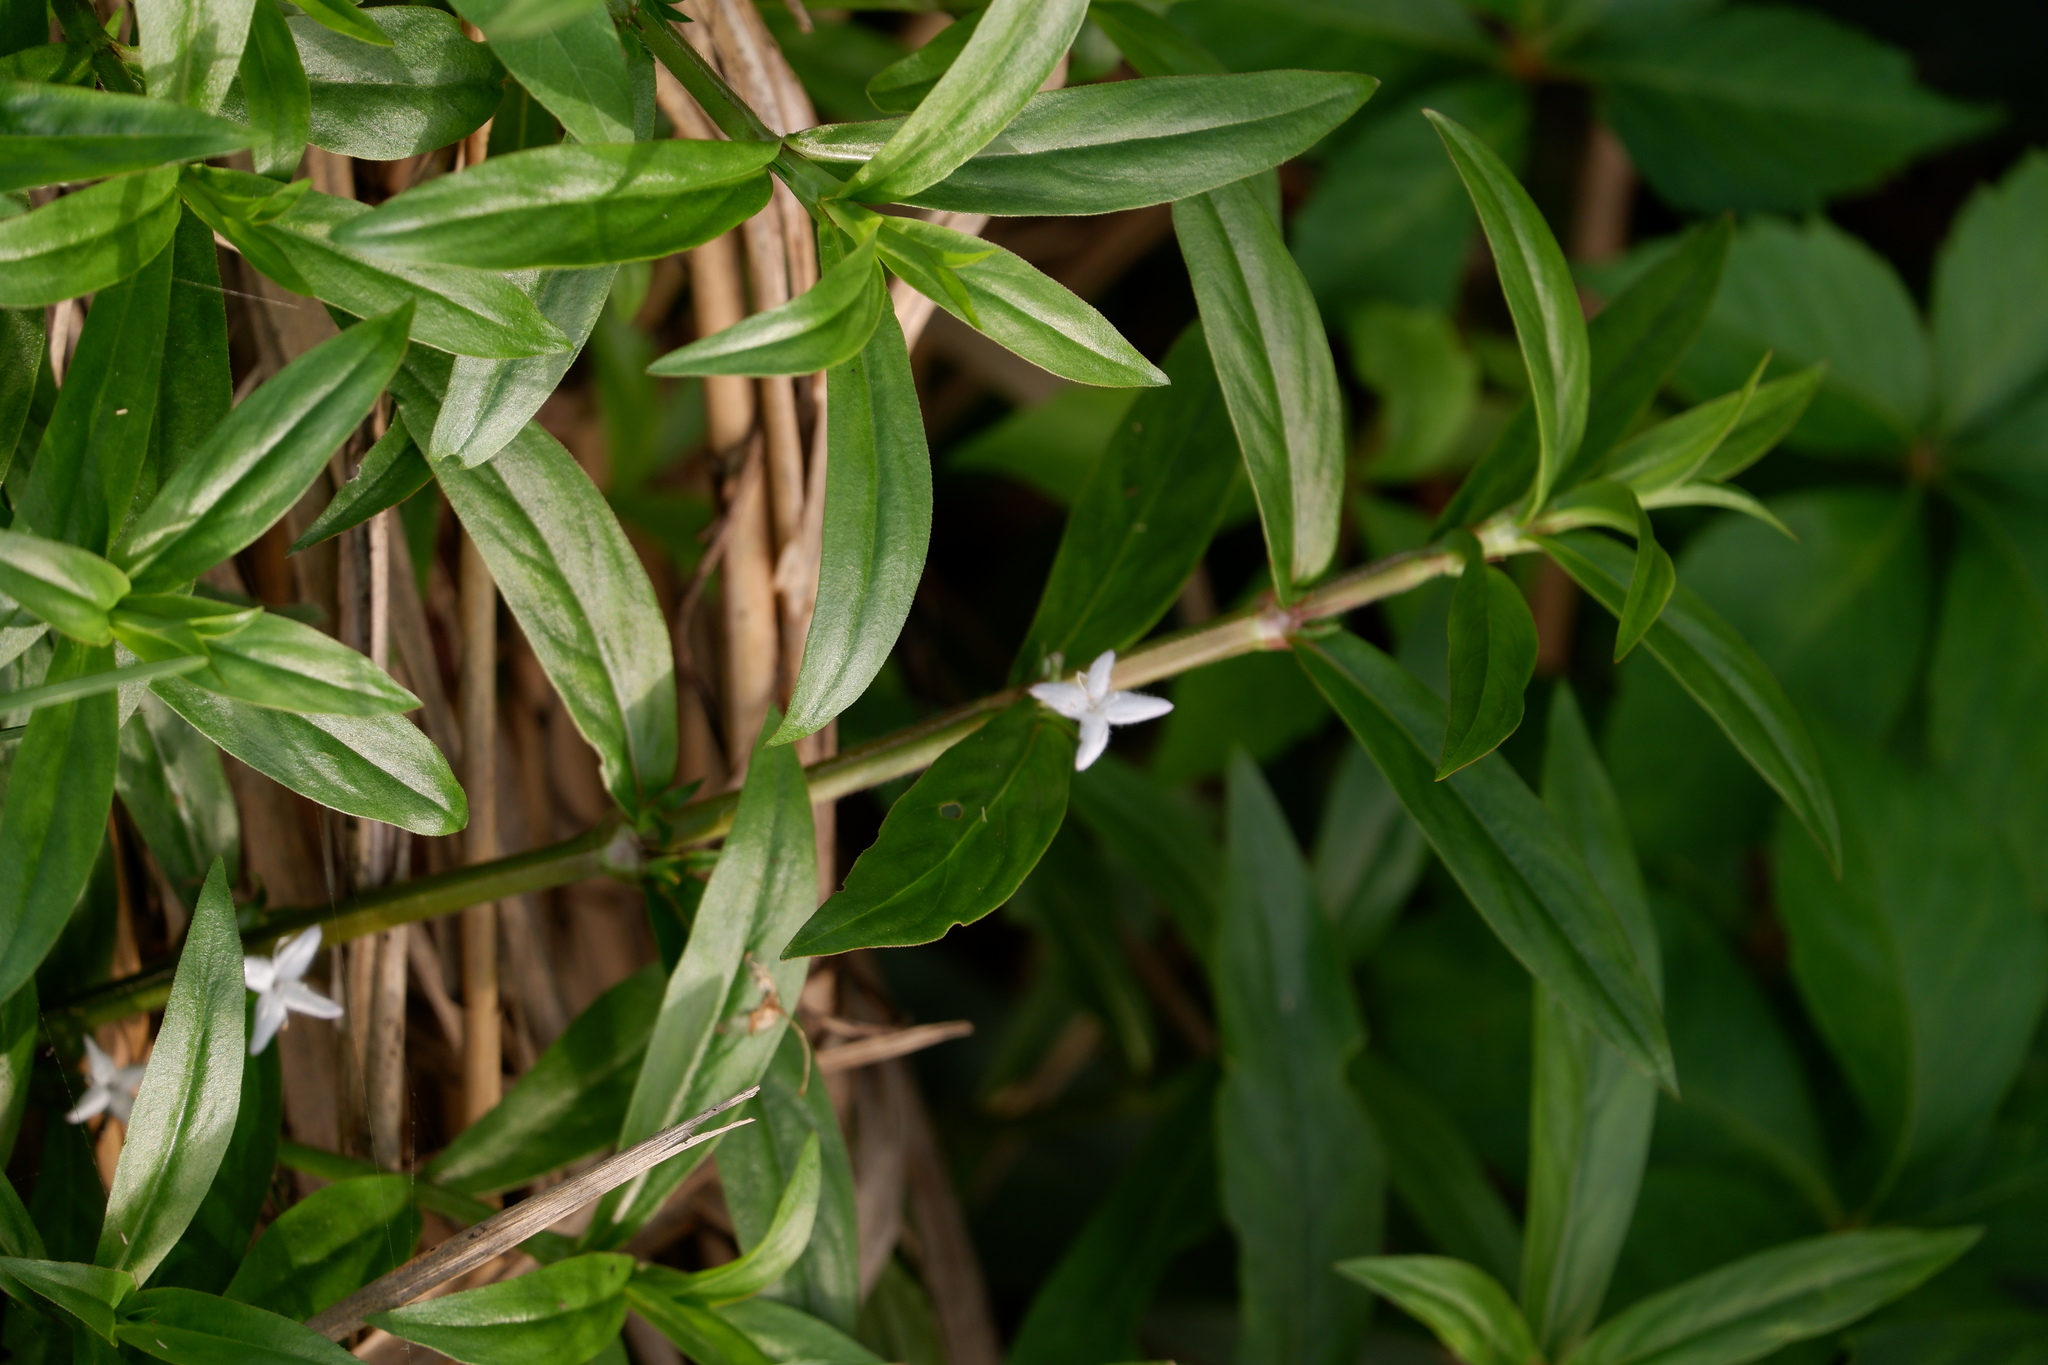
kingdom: Plantae
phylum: Tracheophyta
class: Magnoliopsida
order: Gentianales
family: Rubiaceae
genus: Diodia
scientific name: Diodia virginiana
